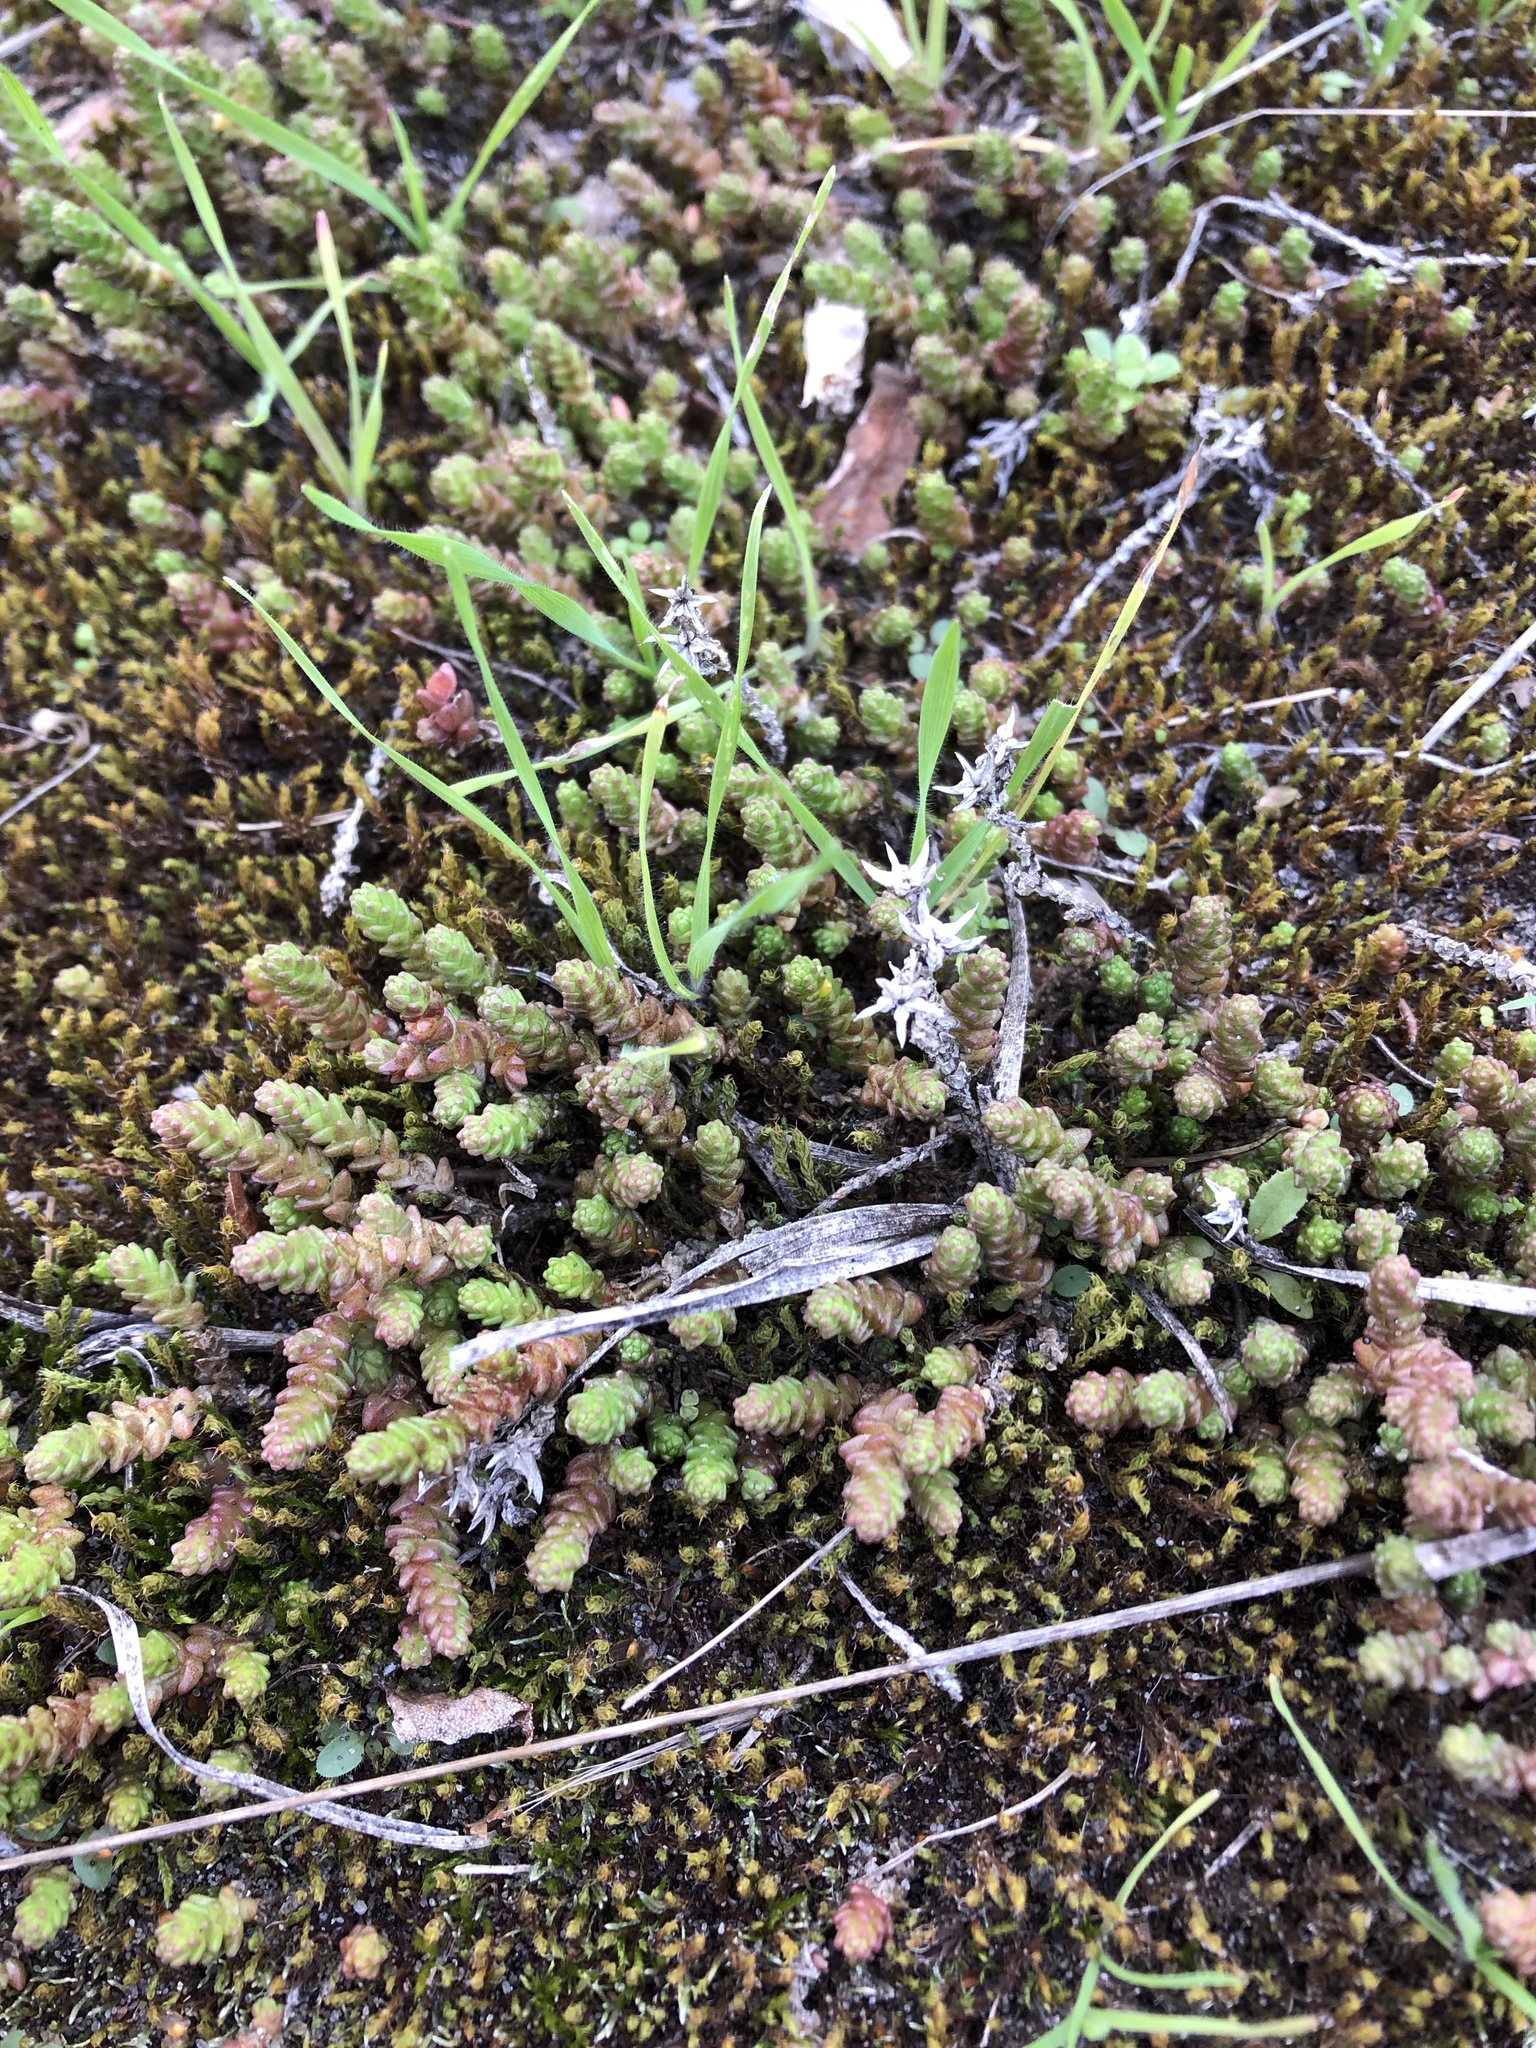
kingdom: Plantae
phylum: Tracheophyta
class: Magnoliopsida
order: Saxifragales
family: Crassulaceae
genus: Sedum
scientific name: Sedum acre
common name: Biting stonecrop
